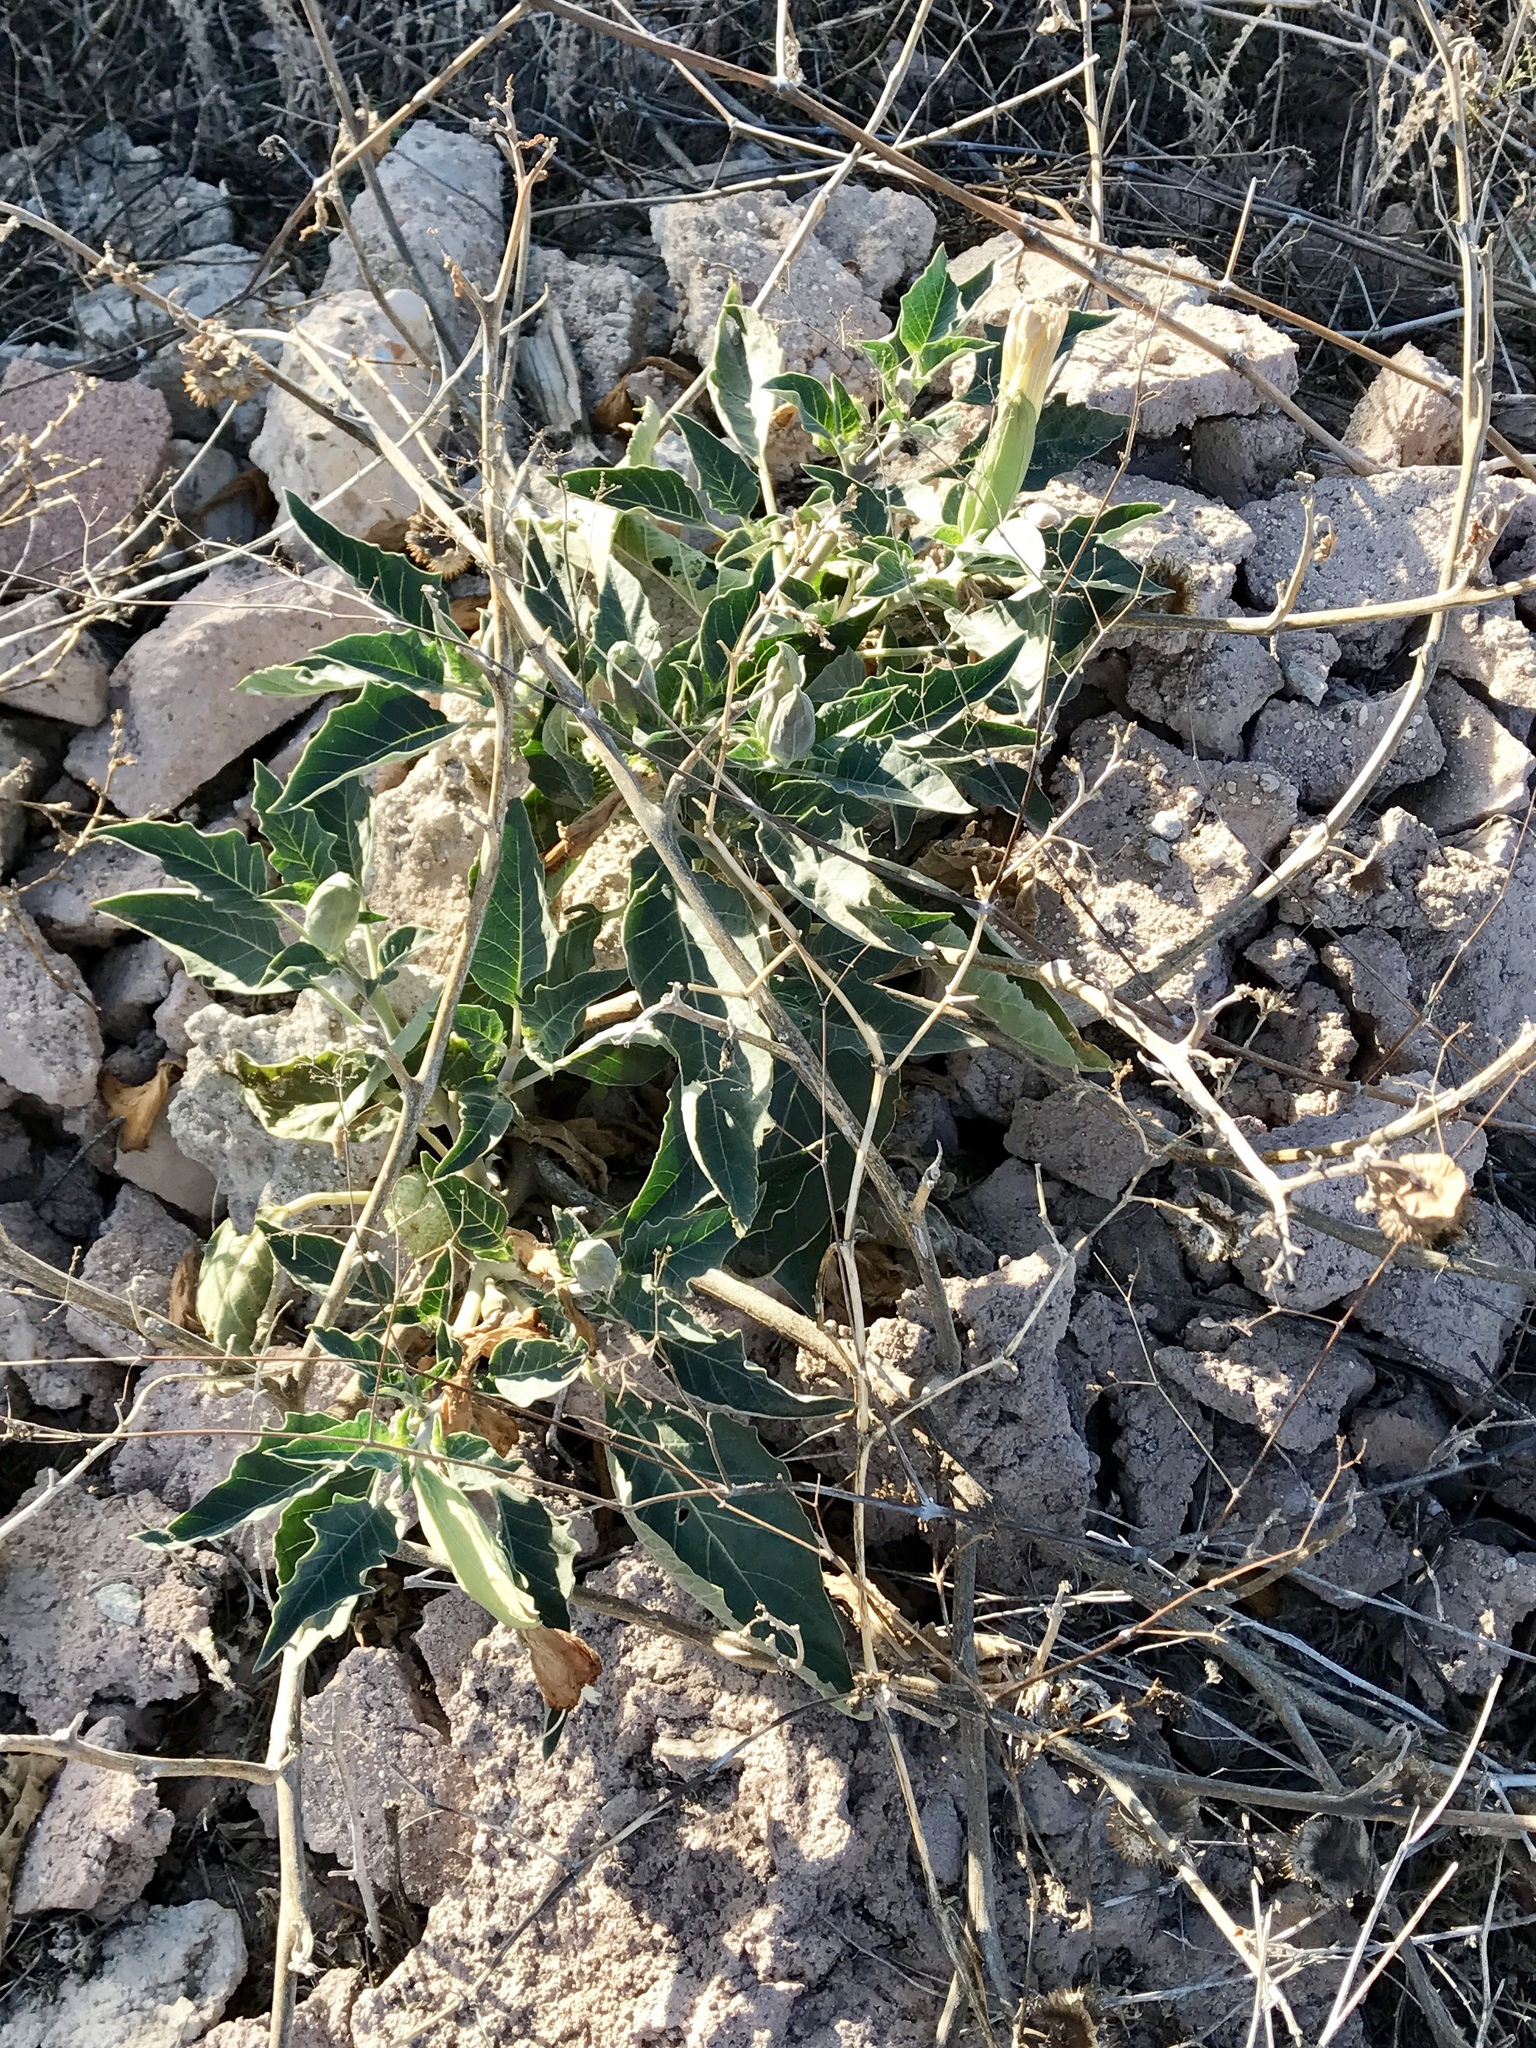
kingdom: Plantae
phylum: Tracheophyta
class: Magnoliopsida
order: Solanales
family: Solanaceae
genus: Datura
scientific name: Datura wrightii
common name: Sacred thorn-apple
